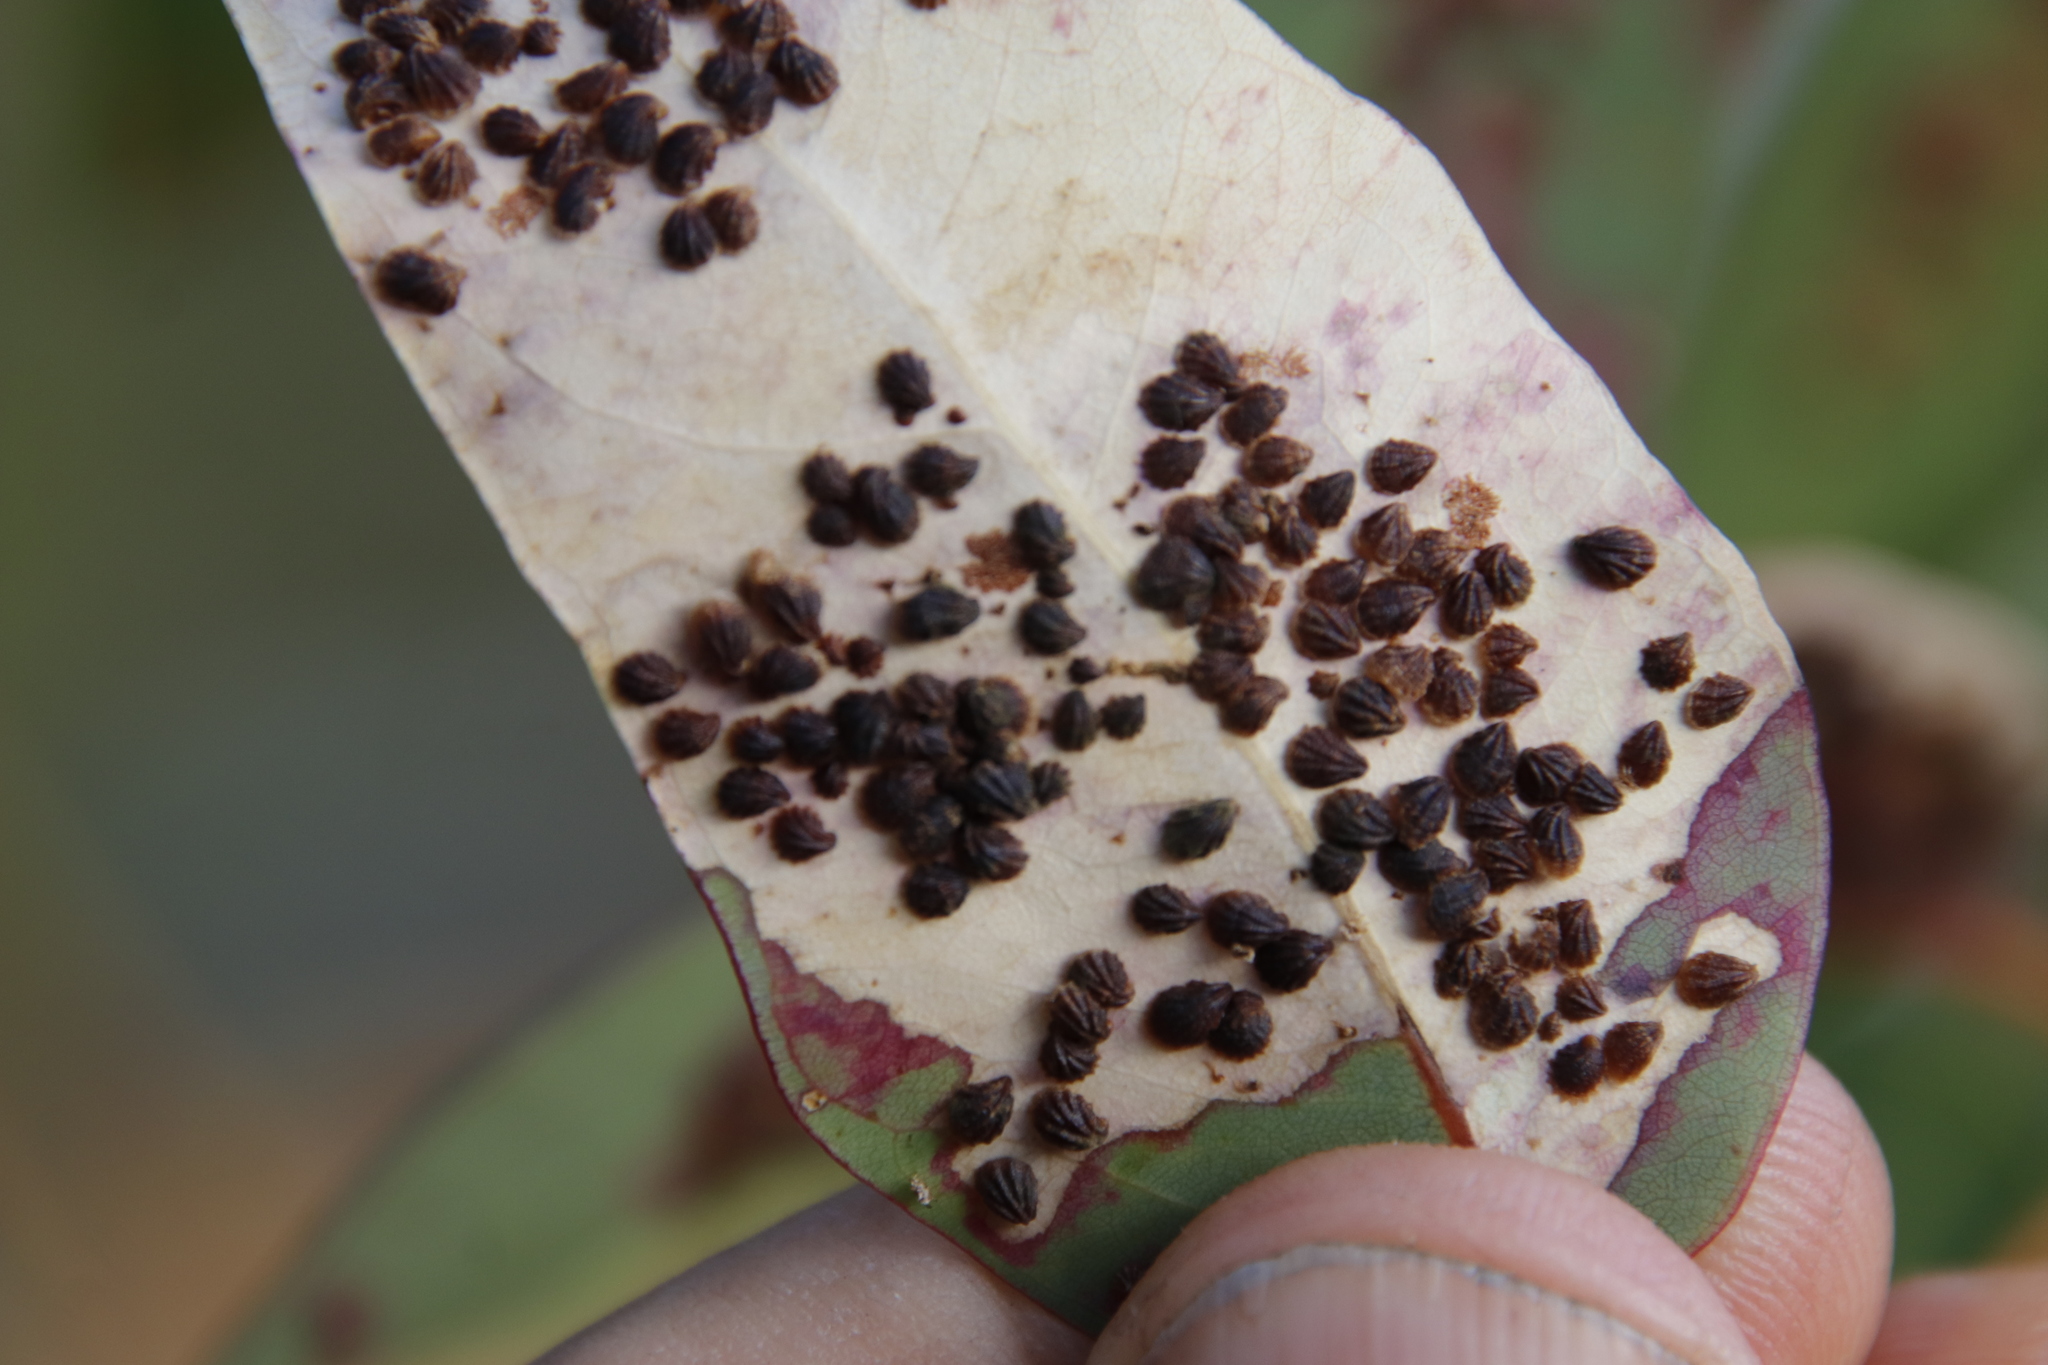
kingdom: Animalia
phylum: Arthropoda
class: Insecta
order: Hemiptera
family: Aphalaridae
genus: Spondyliaspis
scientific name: Spondyliaspis plicatuloides
